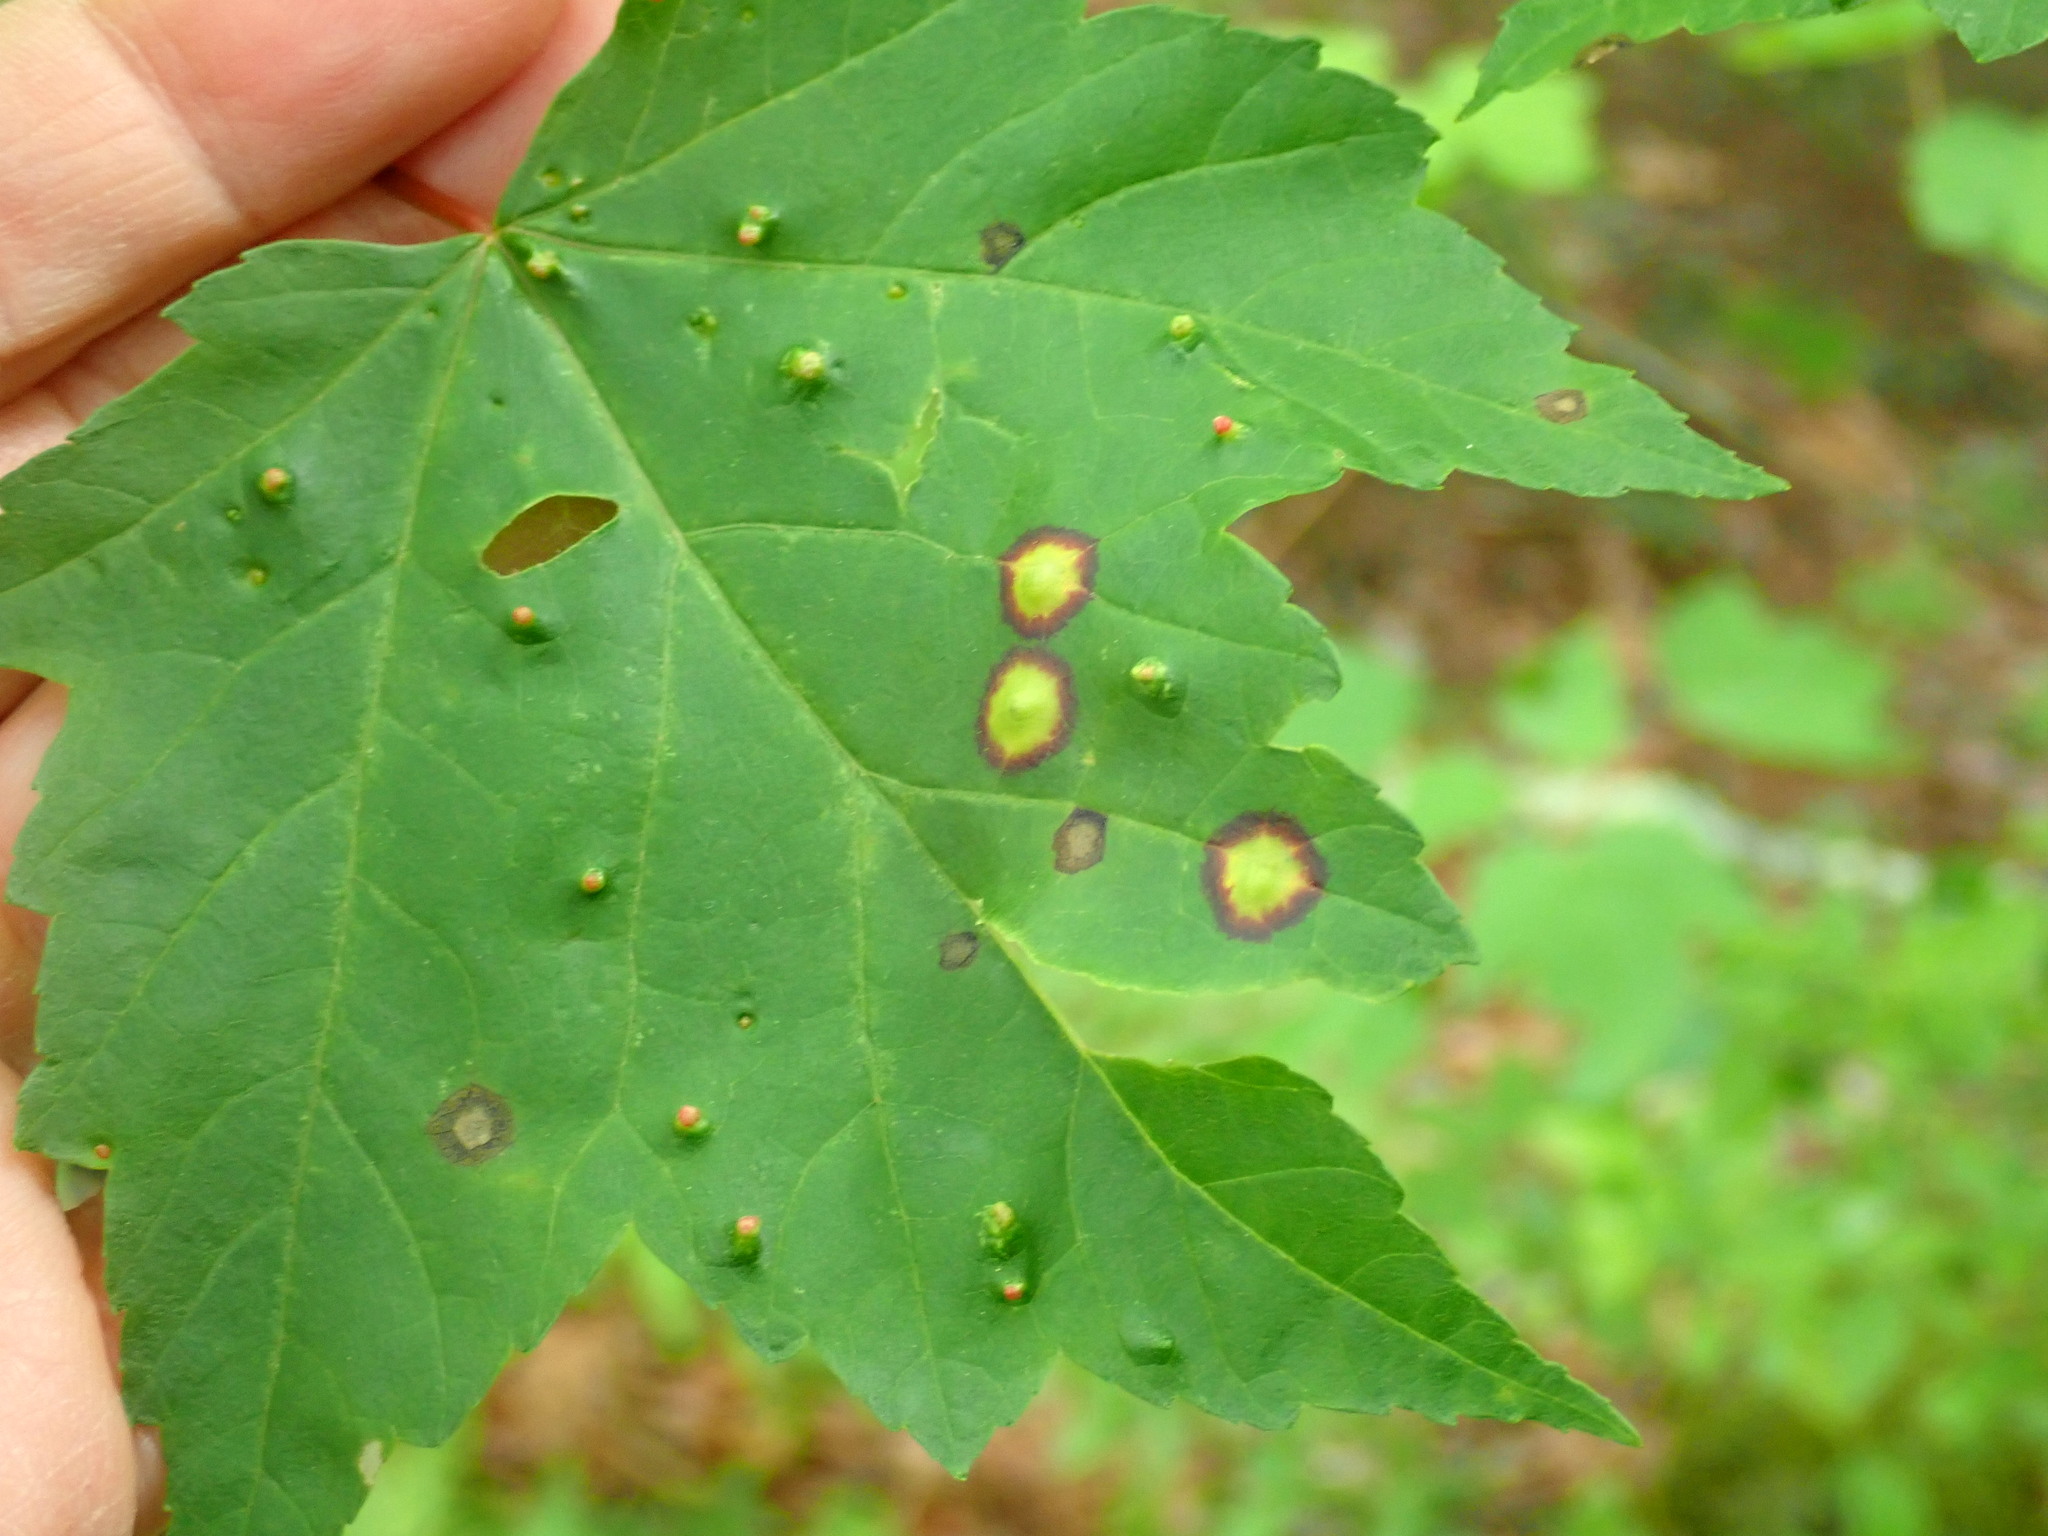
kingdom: Animalia
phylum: Arthropoda
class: Insecta
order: Diptera
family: Cecidomyiidae
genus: Acericecis
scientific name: Acericecis ocellaris
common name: Ocellate gall midge
